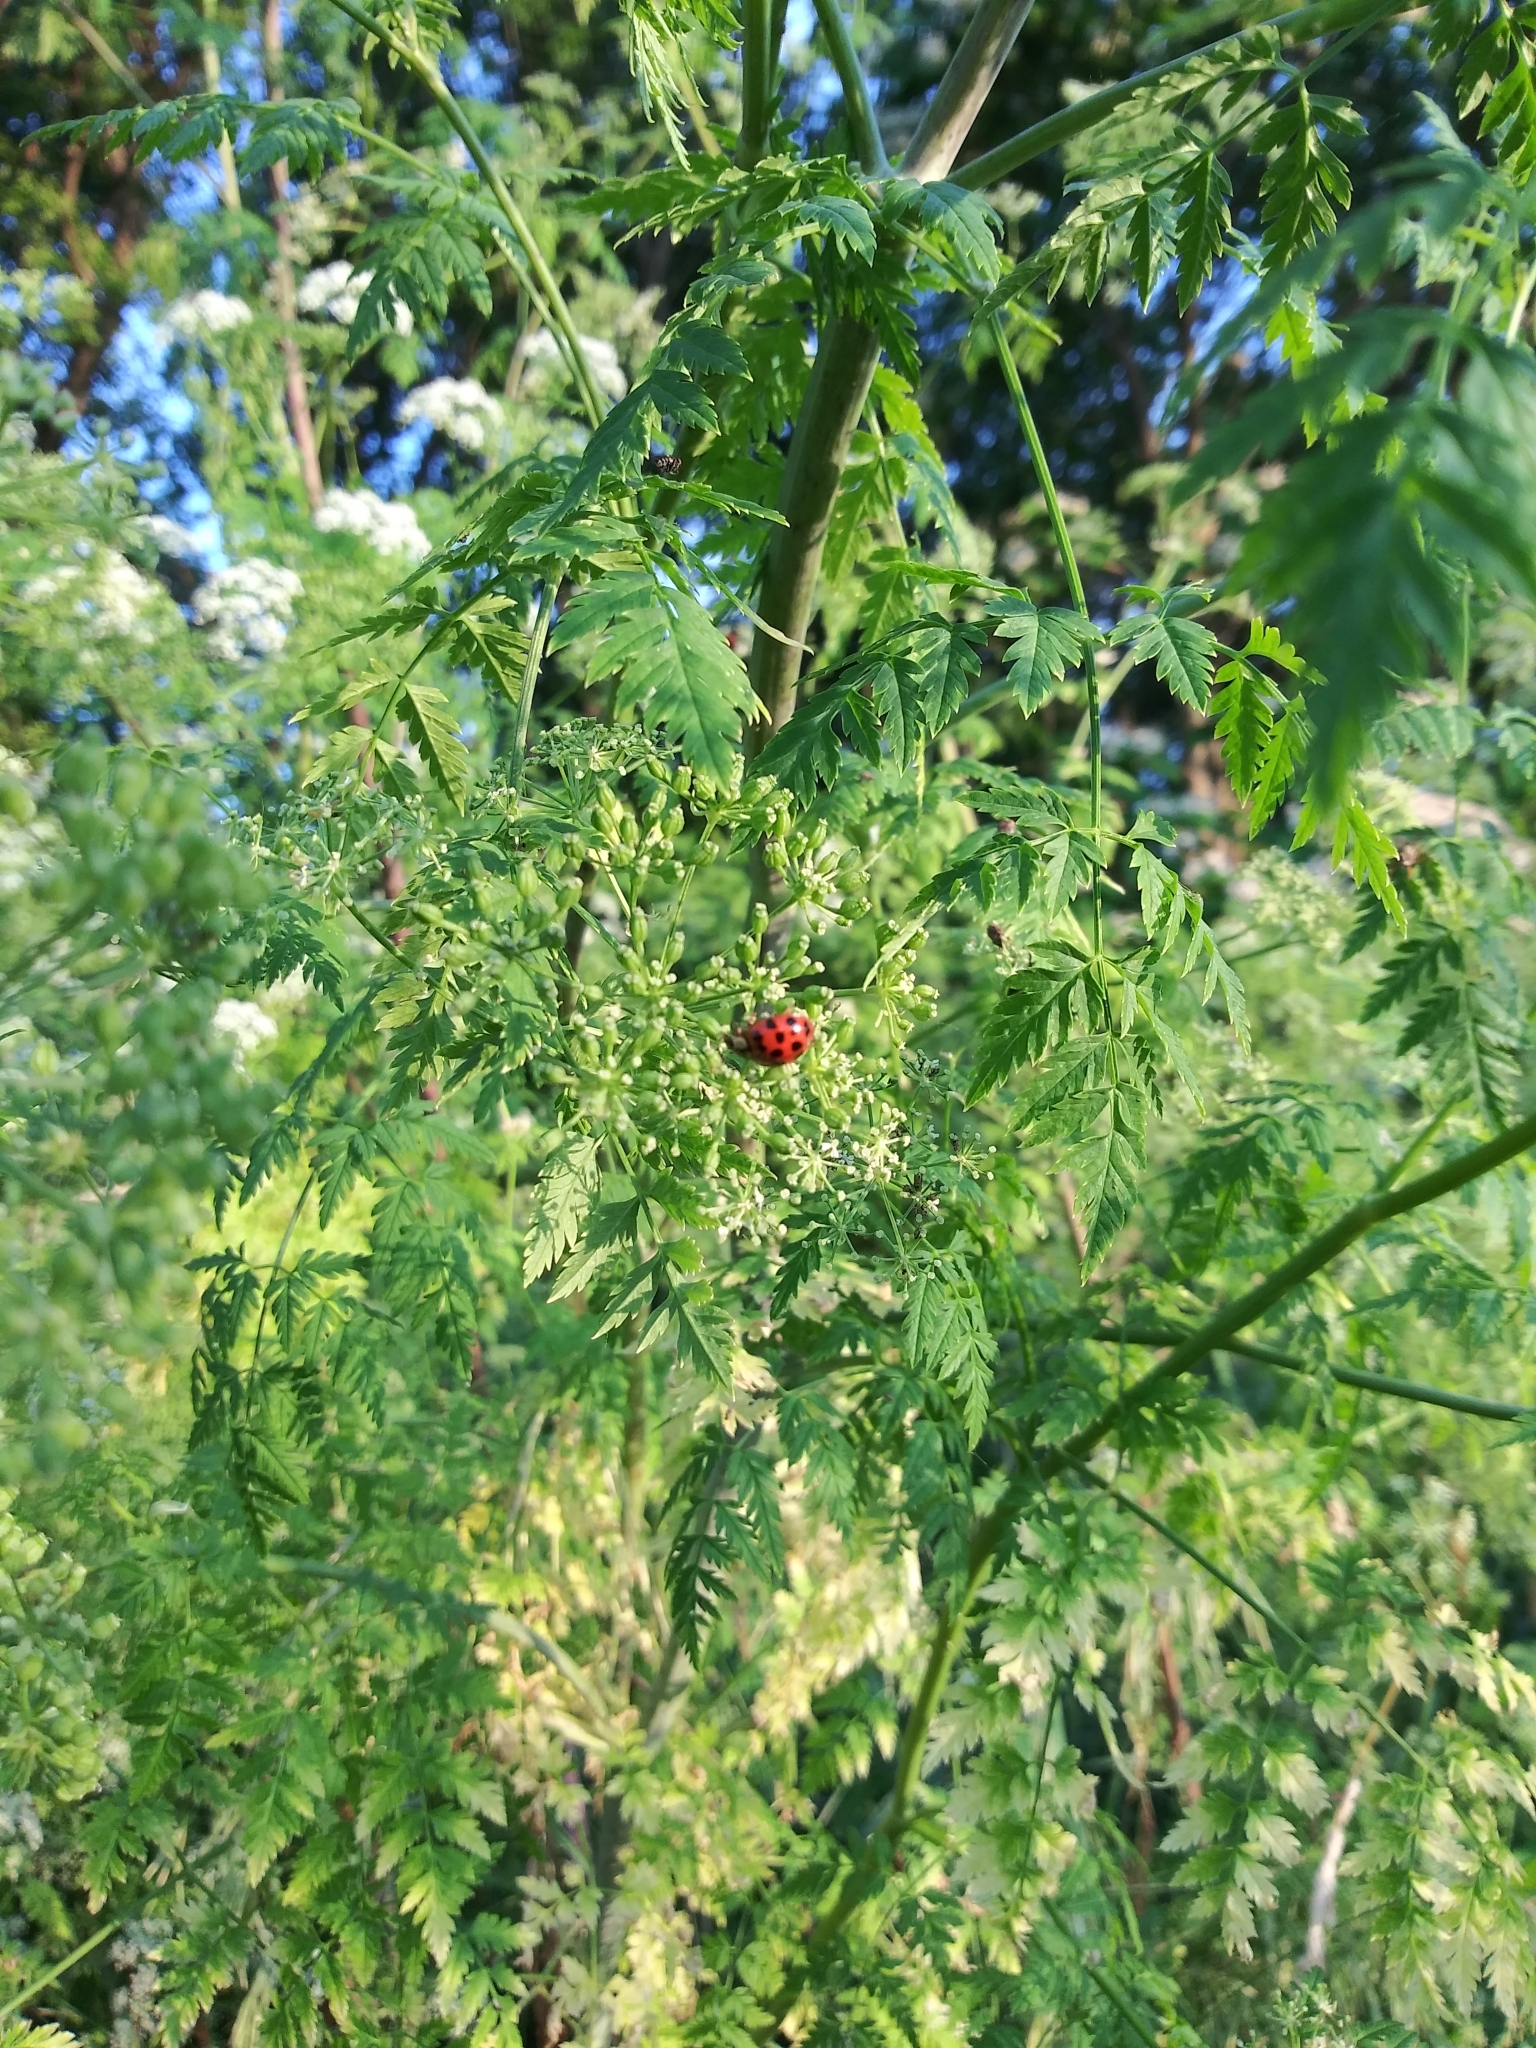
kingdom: Animalia
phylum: Arthropoda
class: Insecta
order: Coleoptera
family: Coccinellidae
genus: Harmonia
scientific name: Harmonia axyridis
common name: Harlequin ladybird
